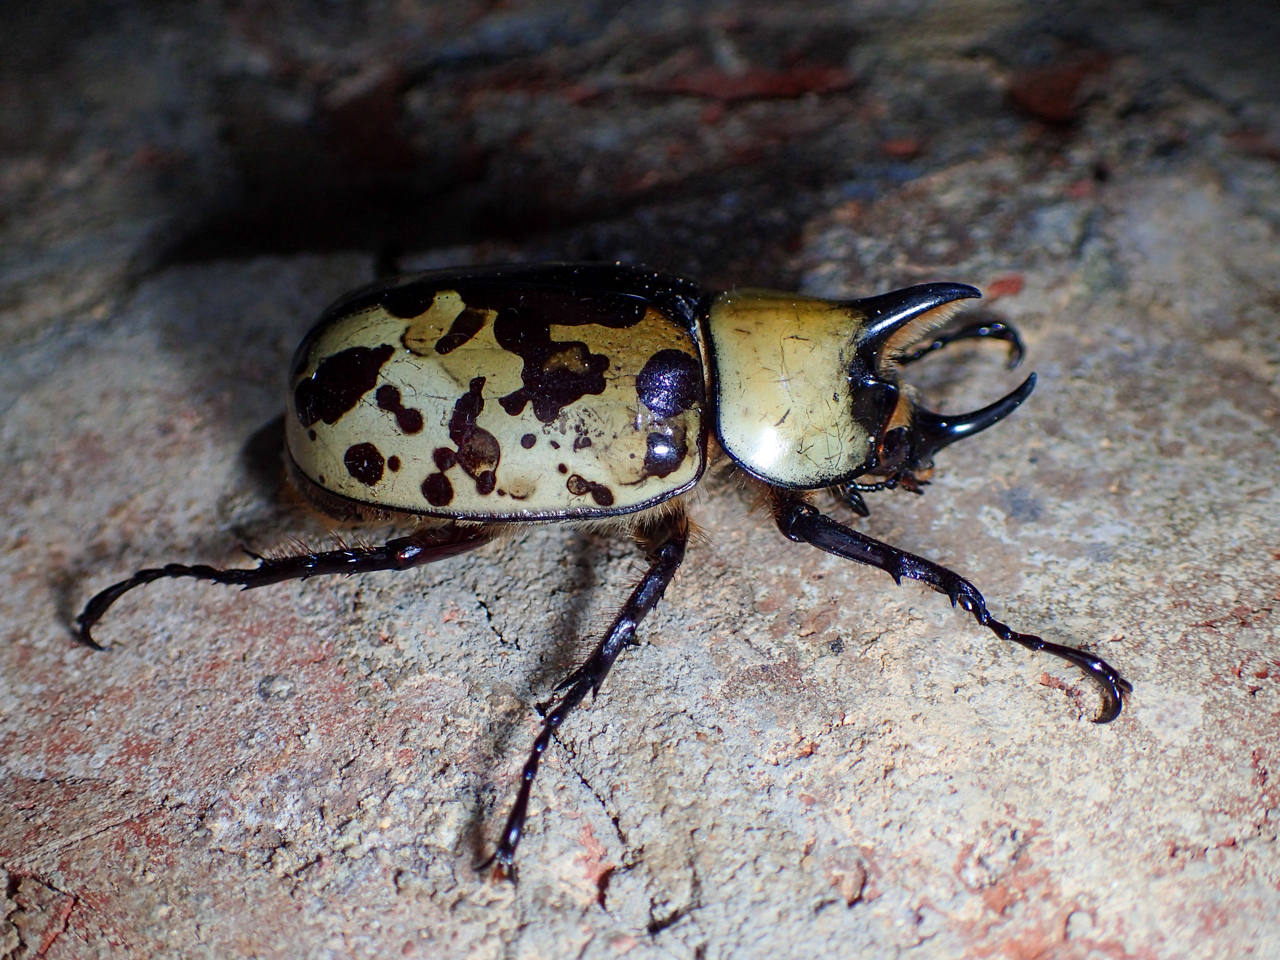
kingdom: Animalia
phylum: Arthropoda
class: Insecta
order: Coleoptera
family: Scarabaeidae
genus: Dynastes
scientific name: Dynastes tityus
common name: Eastern hercules beetle
